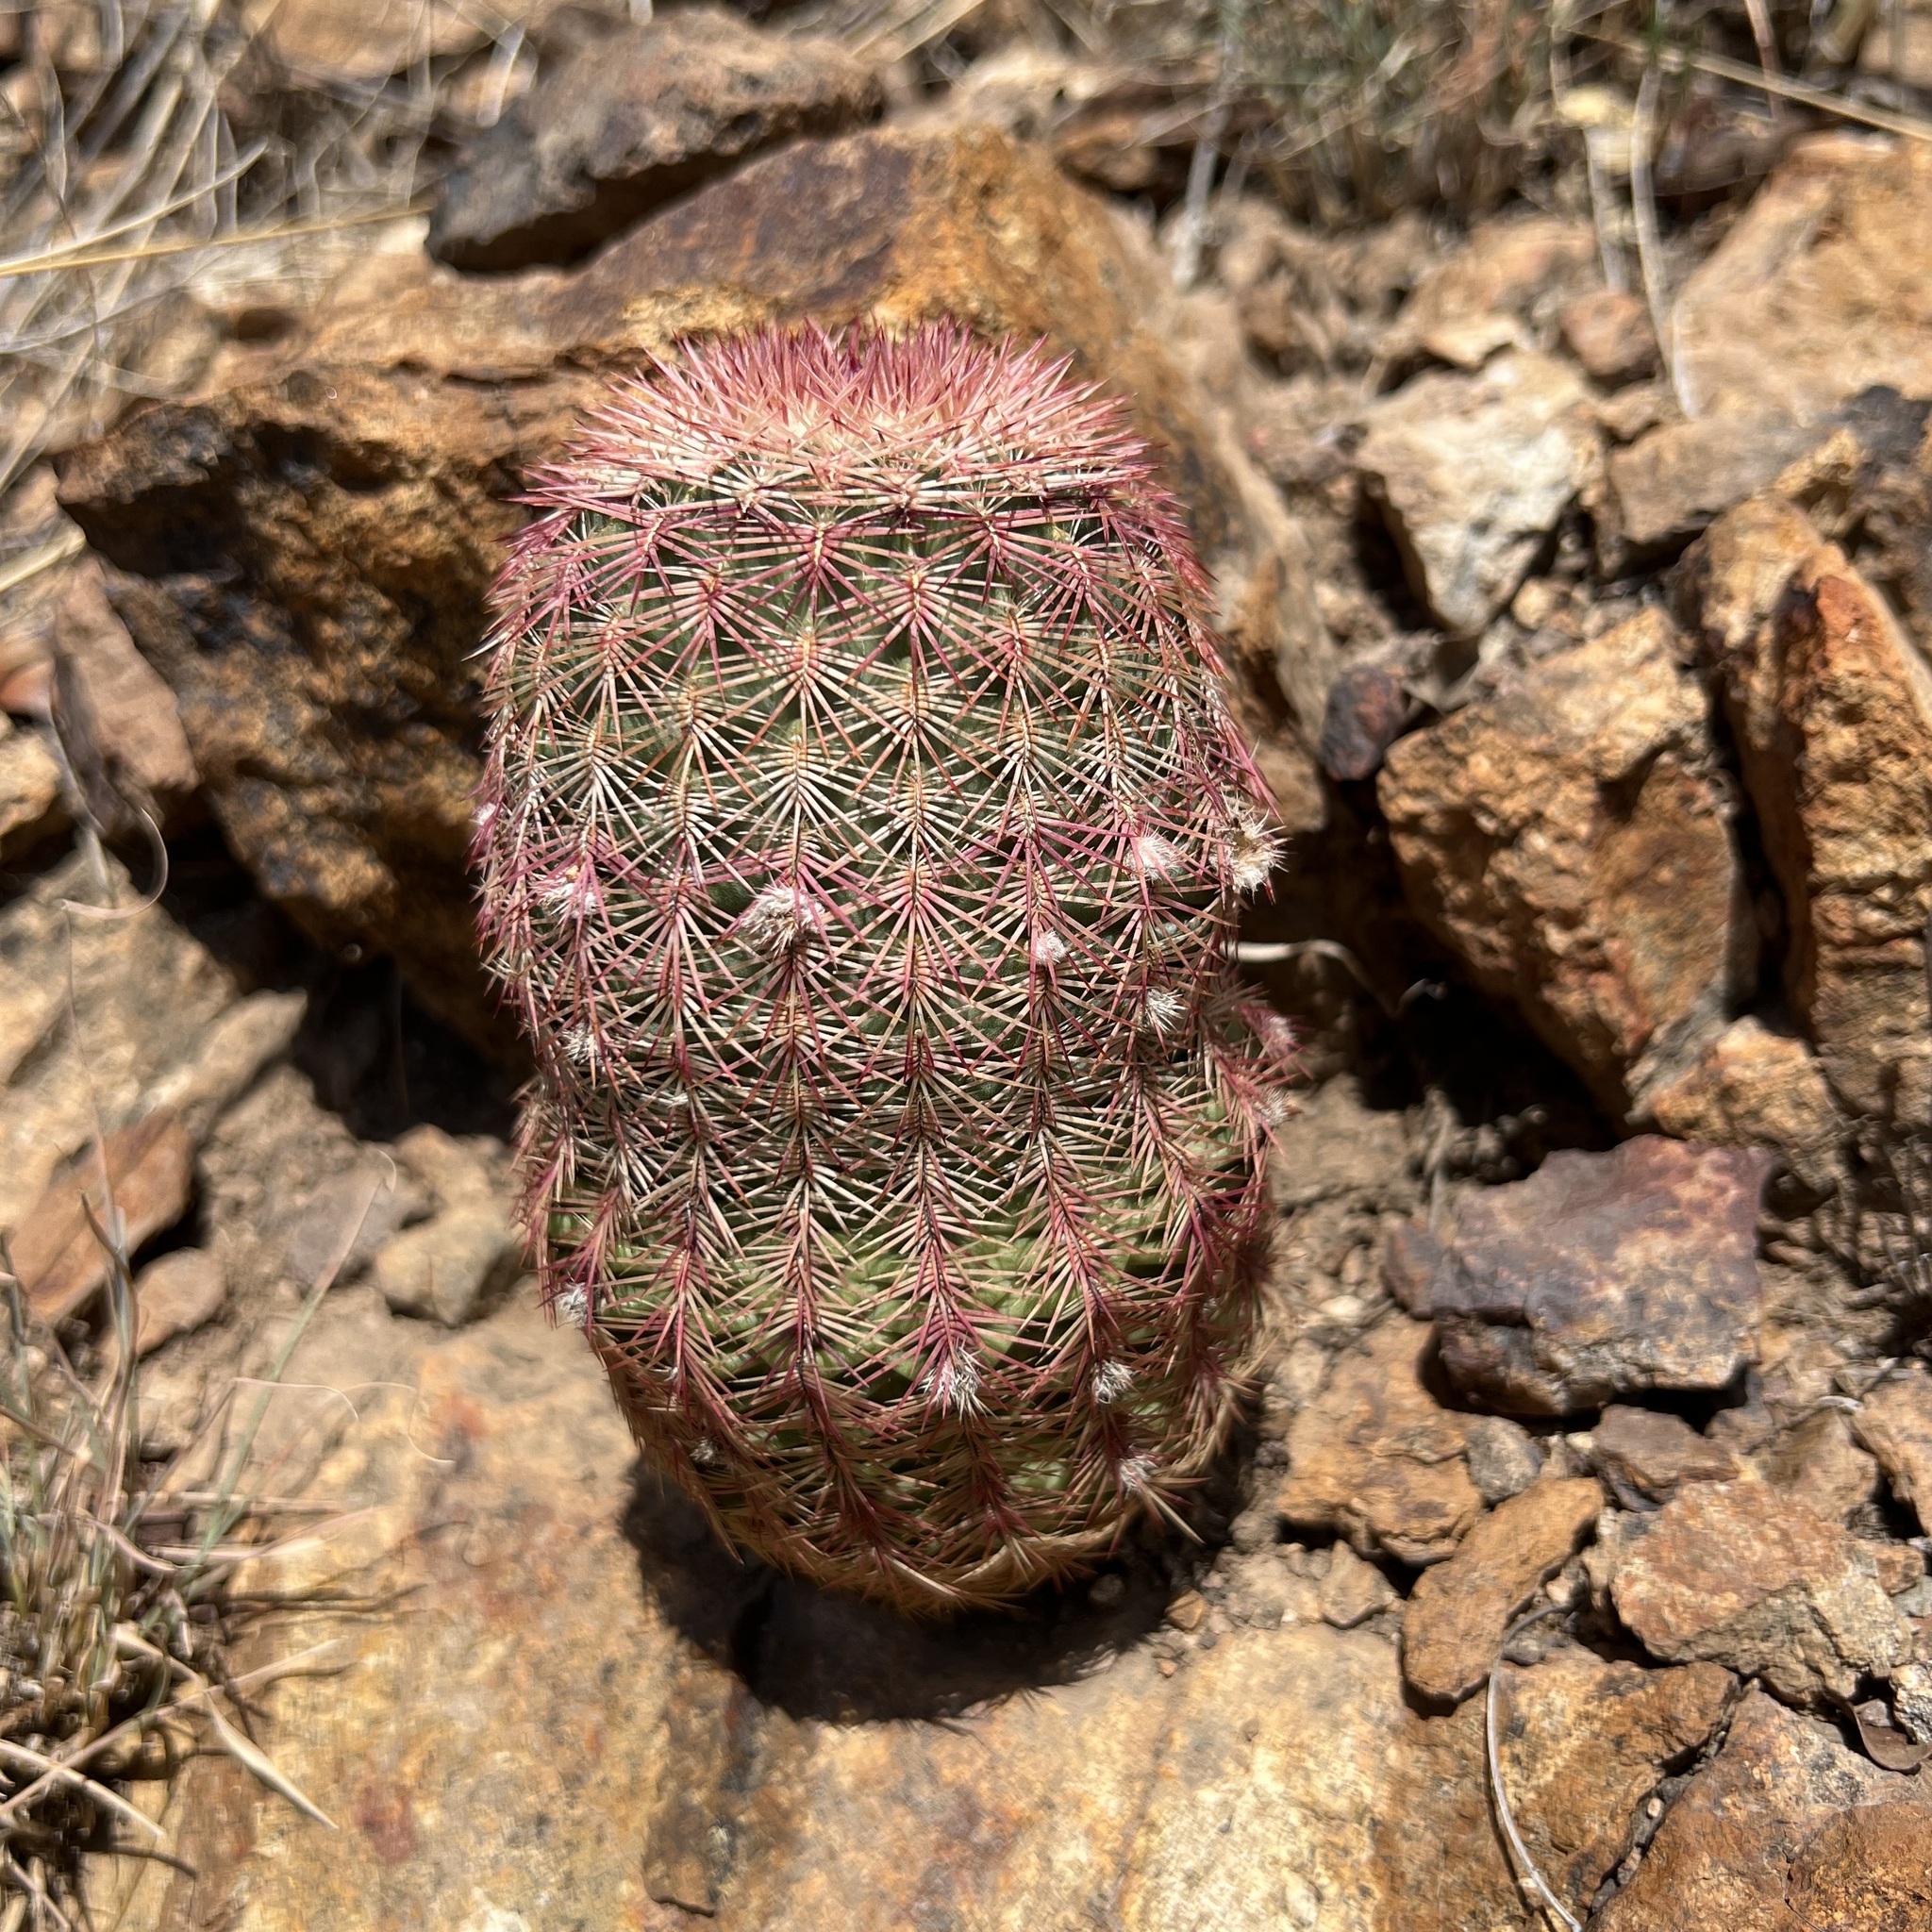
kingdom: Plantae
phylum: Tracheophyta
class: Magnoliopsida
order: Caryophyllales
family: Cactaceae
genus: Echinocereus
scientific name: Echinocereus rigidissimus
